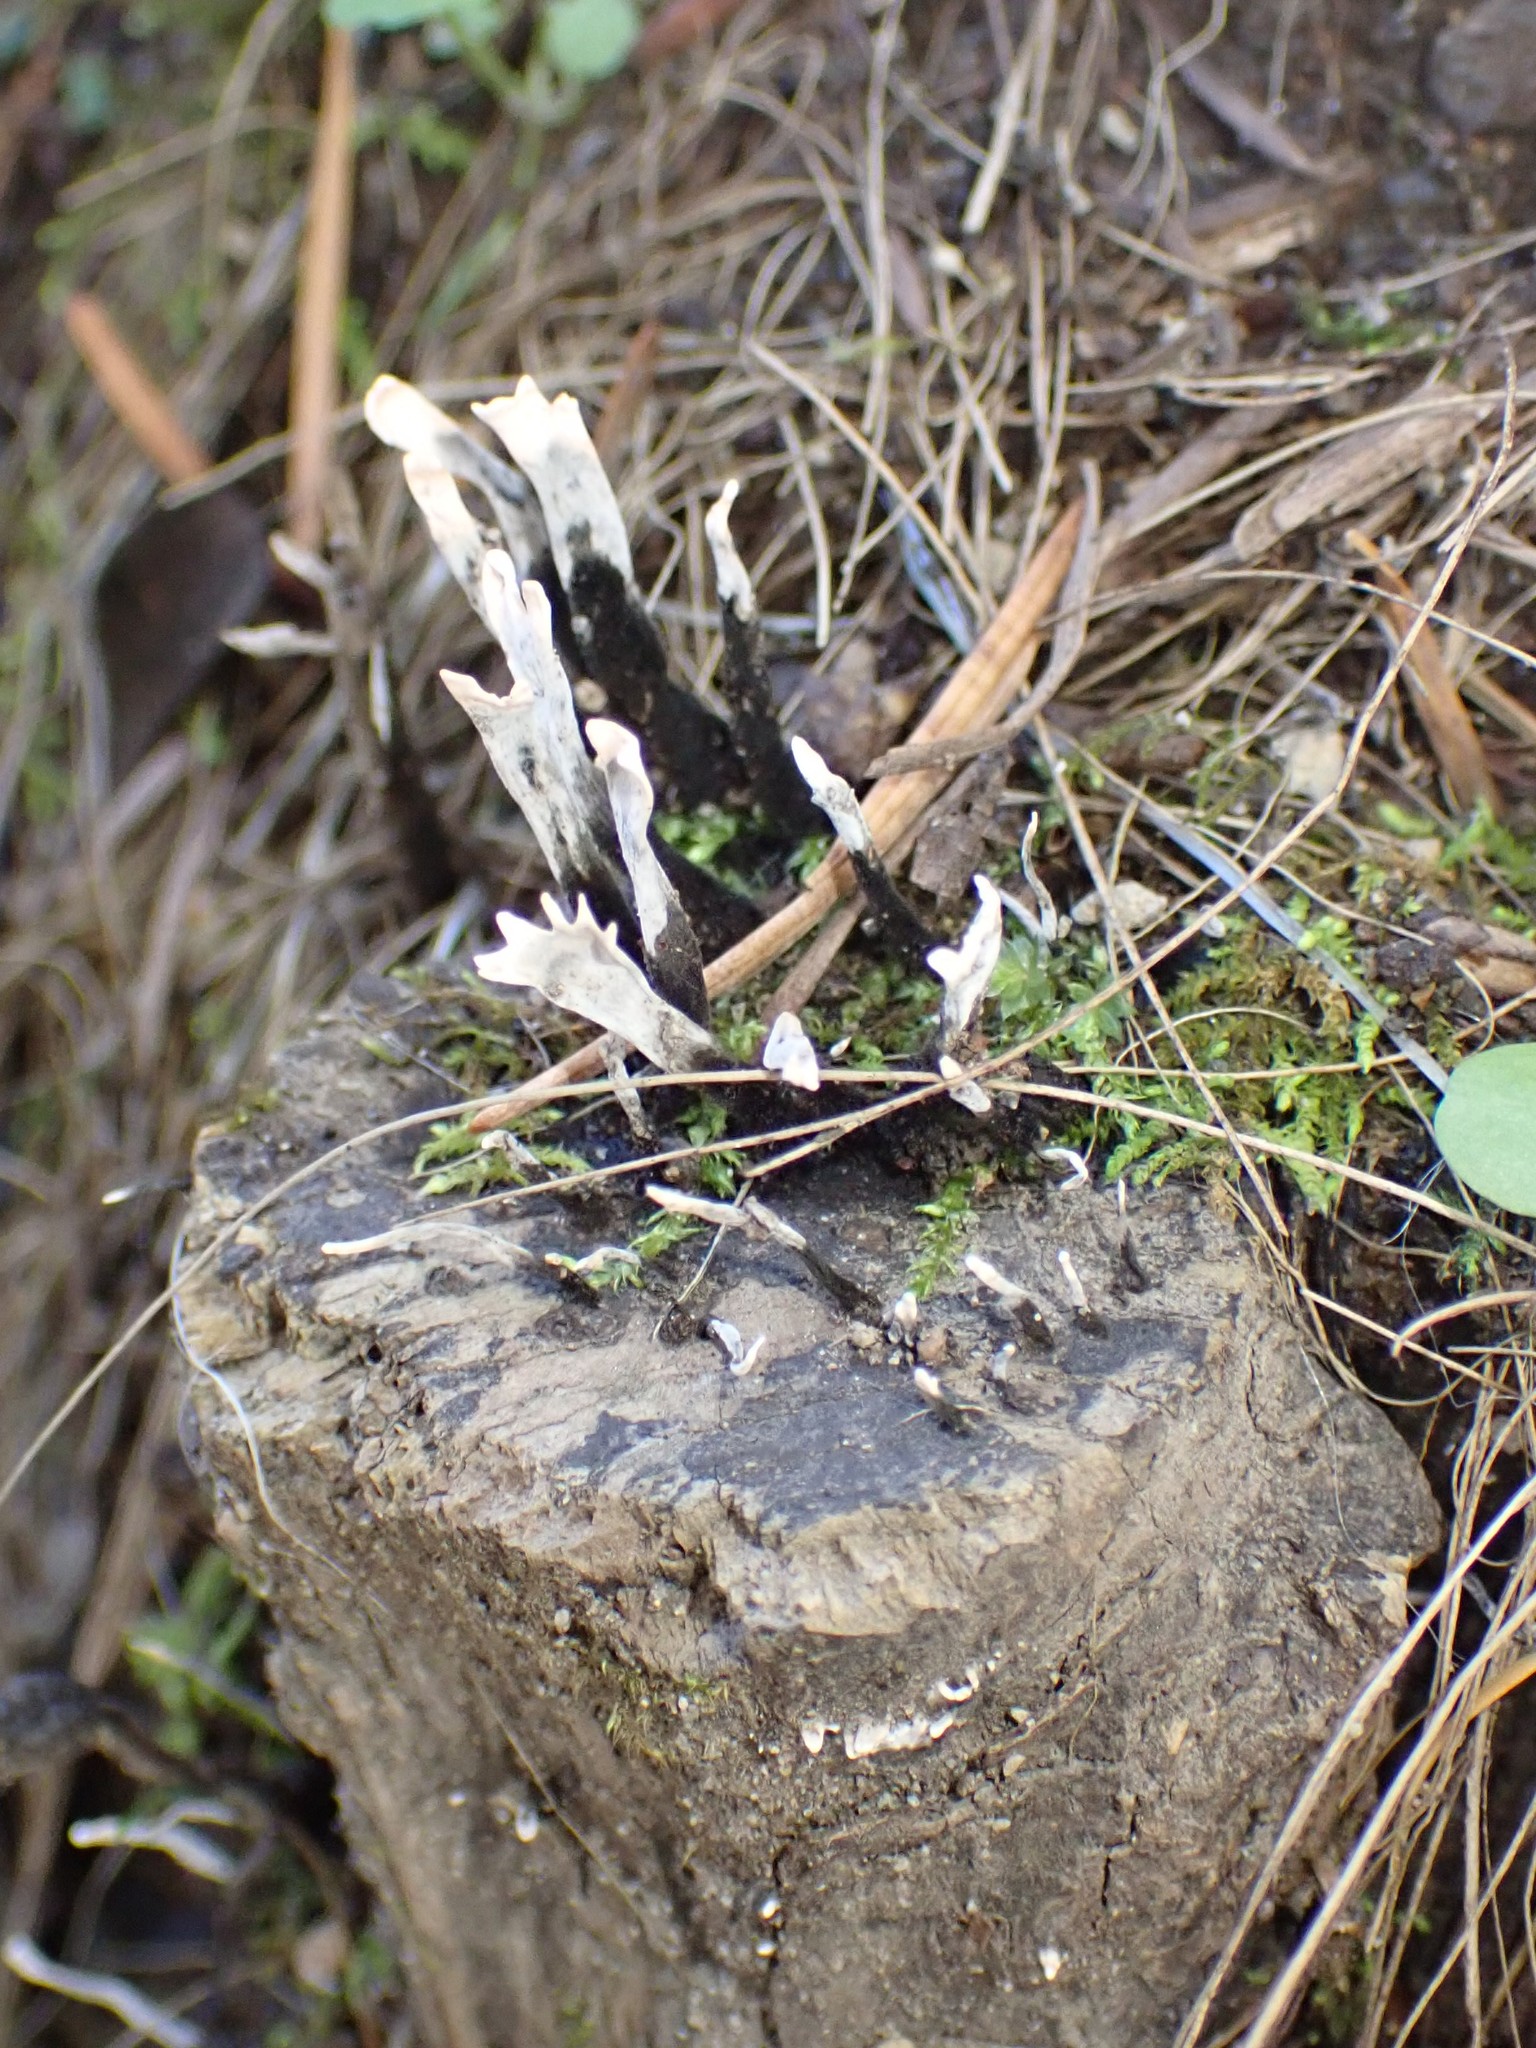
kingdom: Fungi
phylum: Ascomycota
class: Sordariomycetes
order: Xylariales
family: Xylariaceae
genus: Xylaria
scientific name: Xylaria hypoxylon
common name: Candle-snuff fungus
